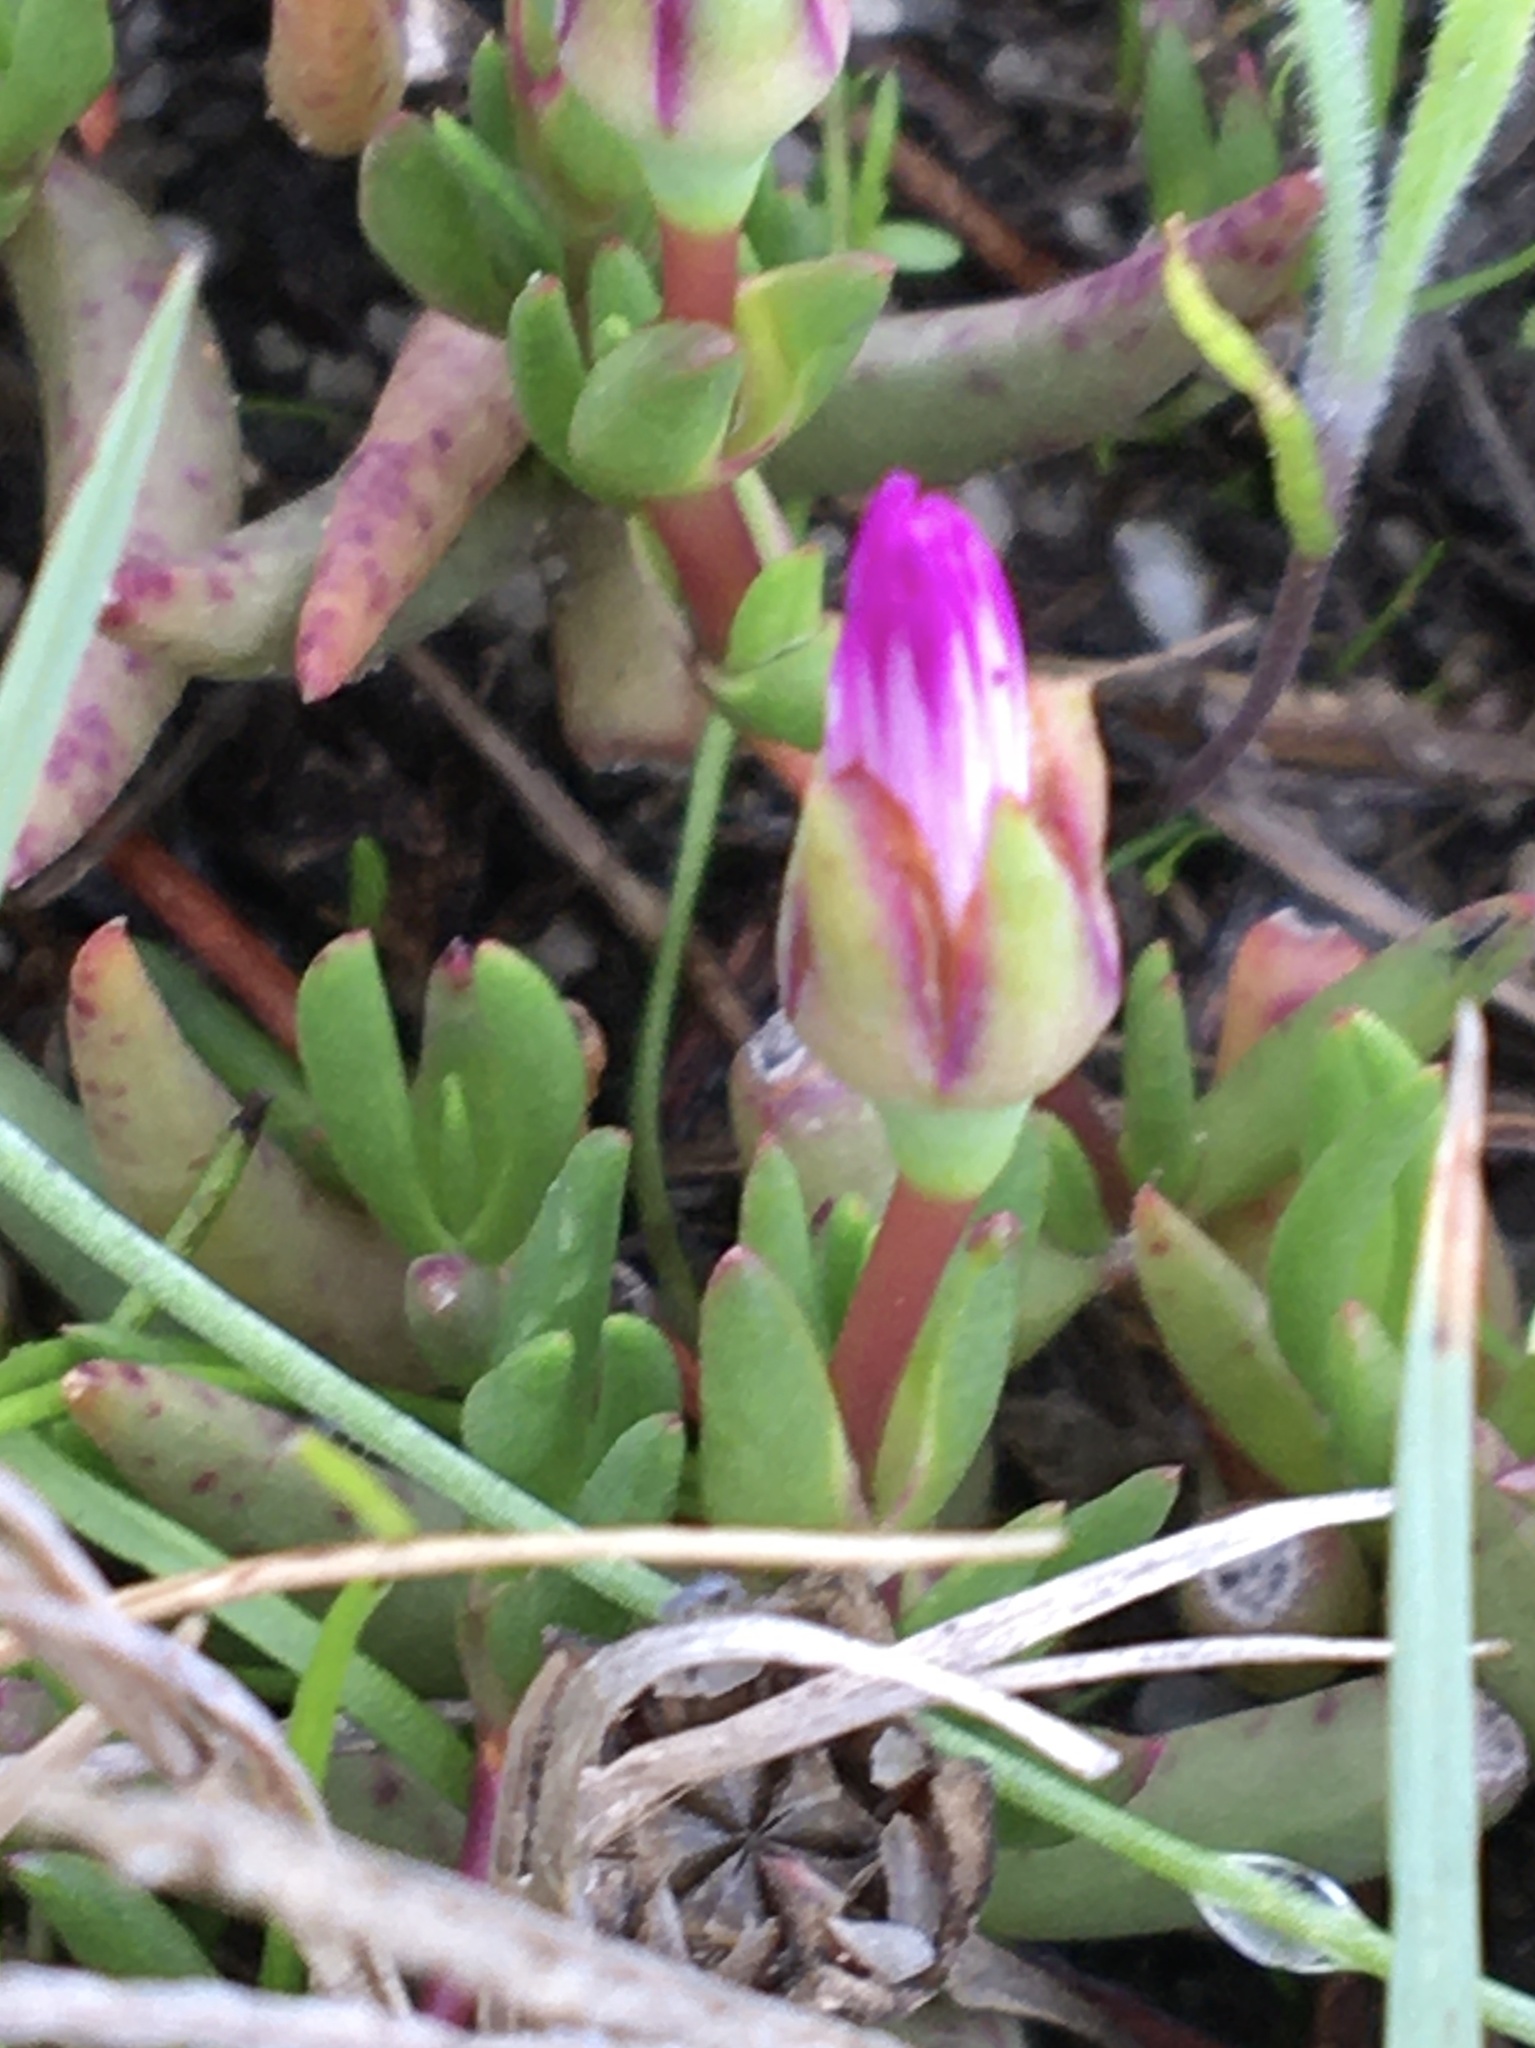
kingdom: Plantae
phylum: Tracheophyta
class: Magnoliopsida
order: Caryophyllales
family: Aizoaceae
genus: Lampranthus
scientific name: Lampranthus filicaulis
